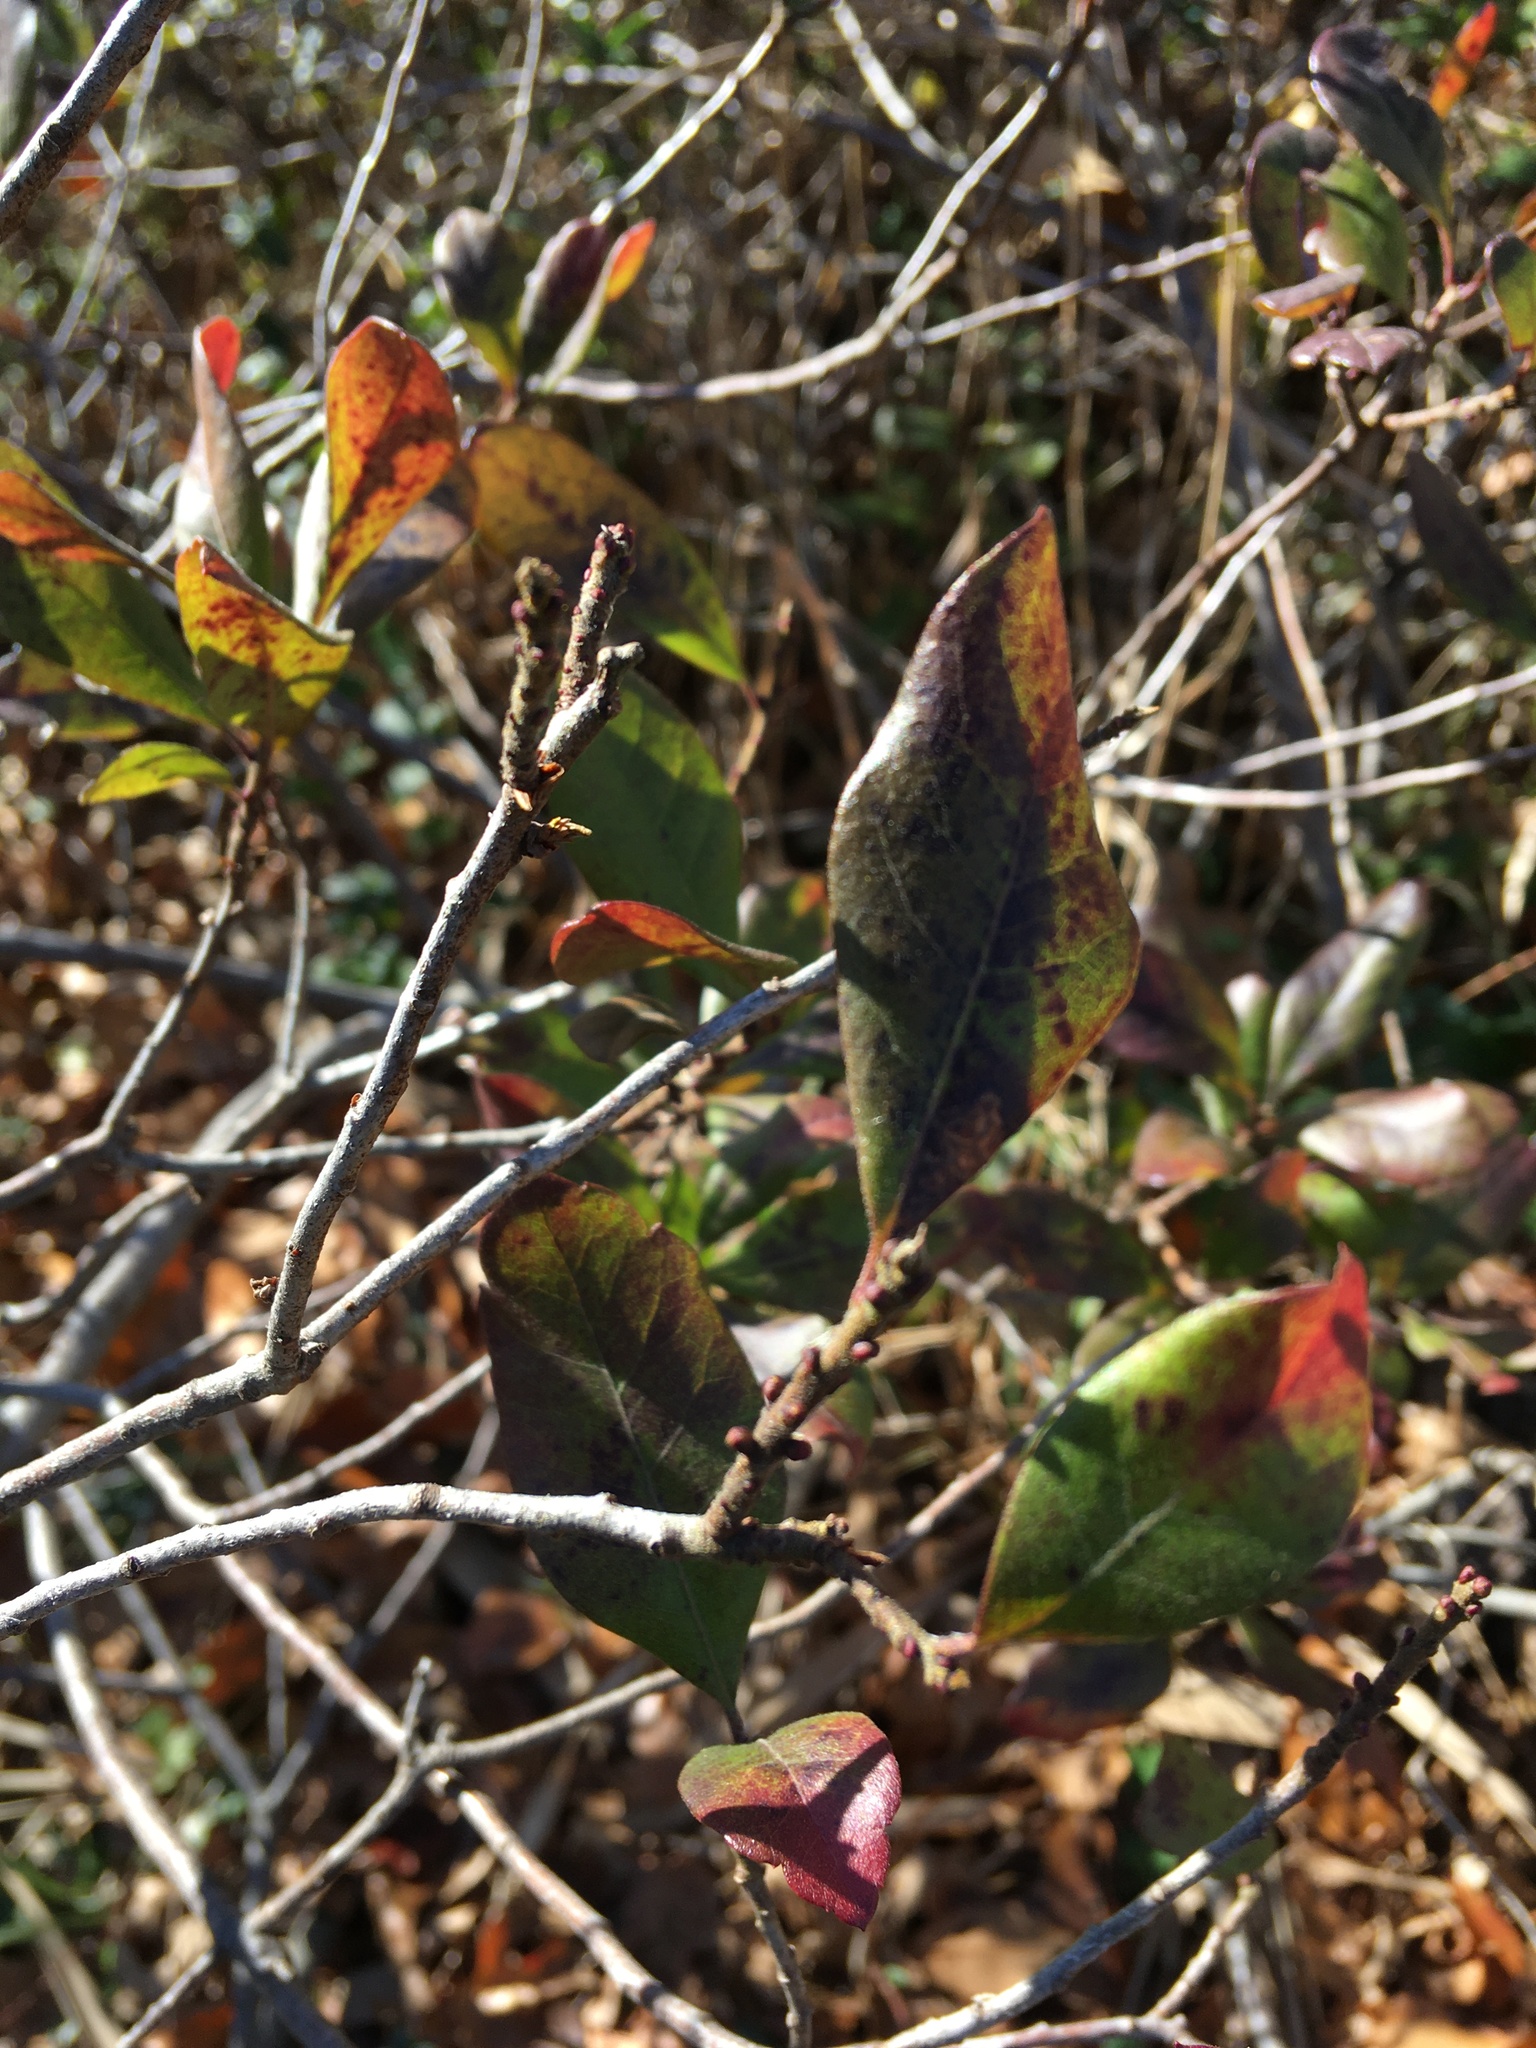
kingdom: Plantae
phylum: Tracheophyta
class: Magnoliopsida
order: Fagales
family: Myricaceae
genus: Morella
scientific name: Morella pensylvanica
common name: Northern bayberry
